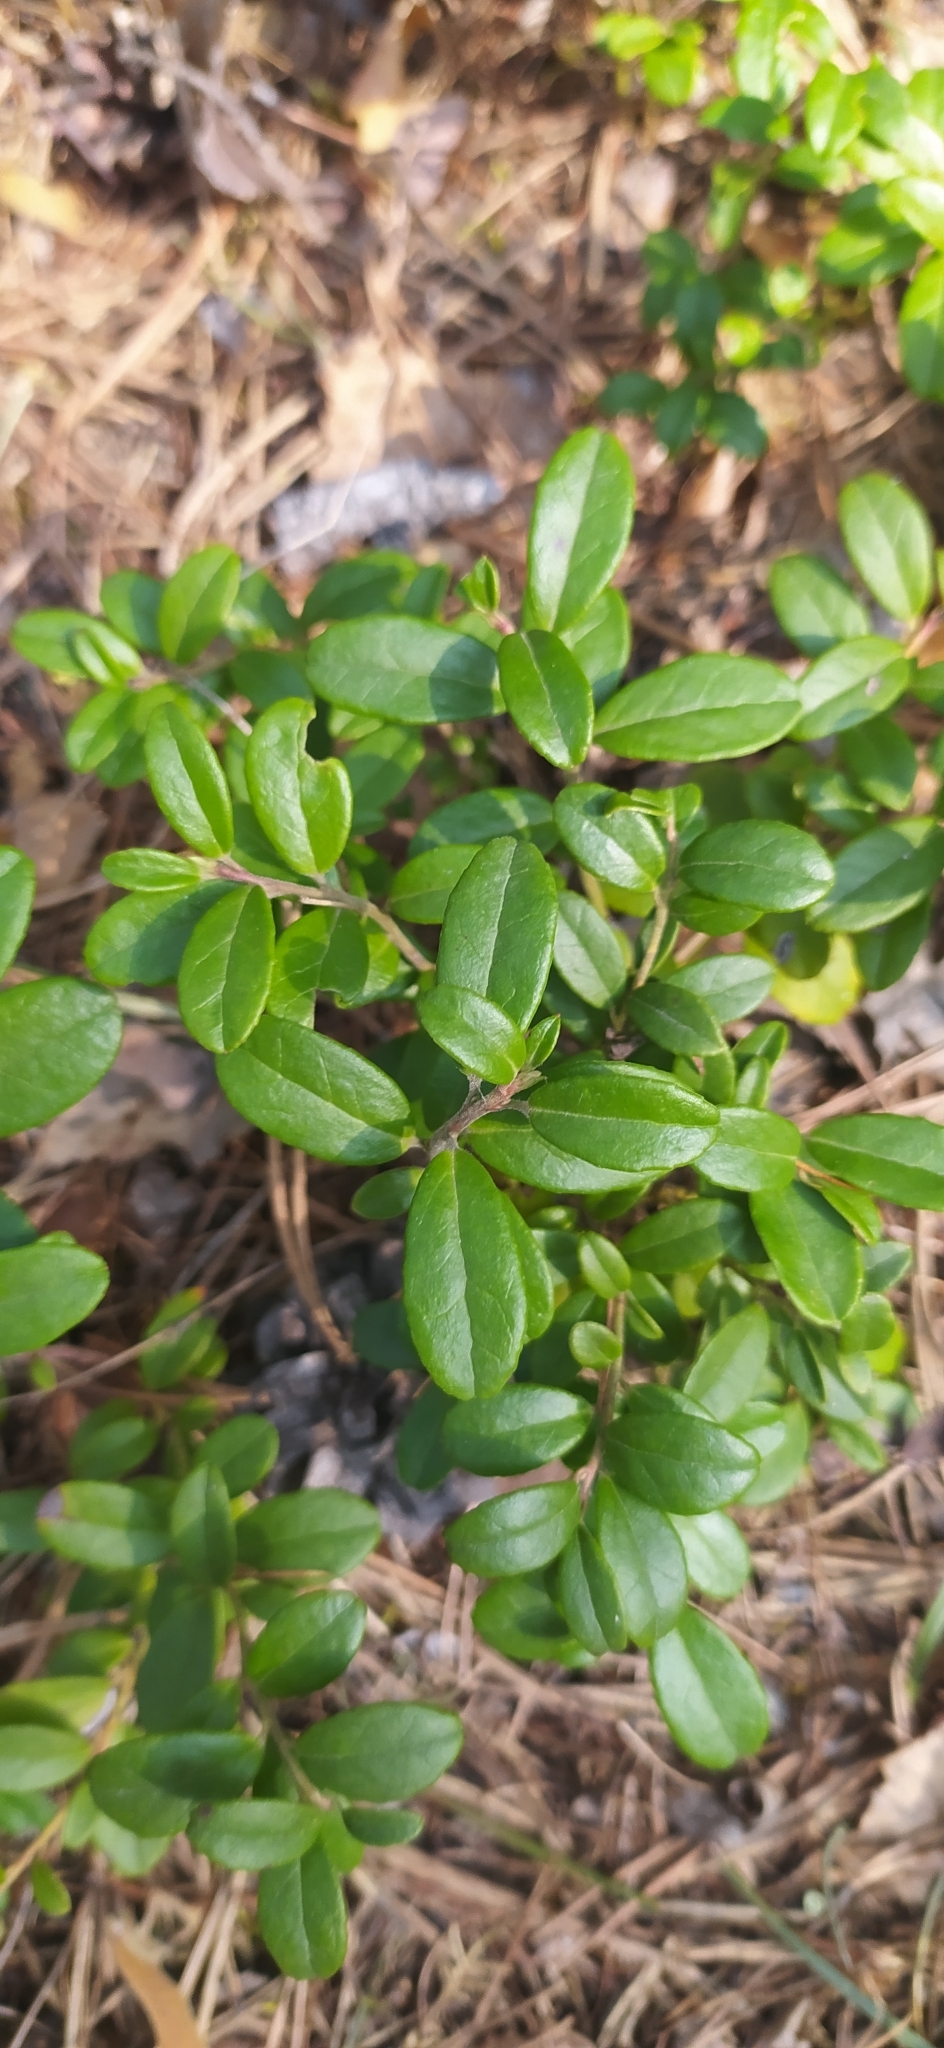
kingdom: Plantae
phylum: Tracheophyta
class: Magnoliopsida
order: Ericales
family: Ericaceae
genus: Vaccinium
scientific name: Vaccinium vitis-idaea
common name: Cowberry
